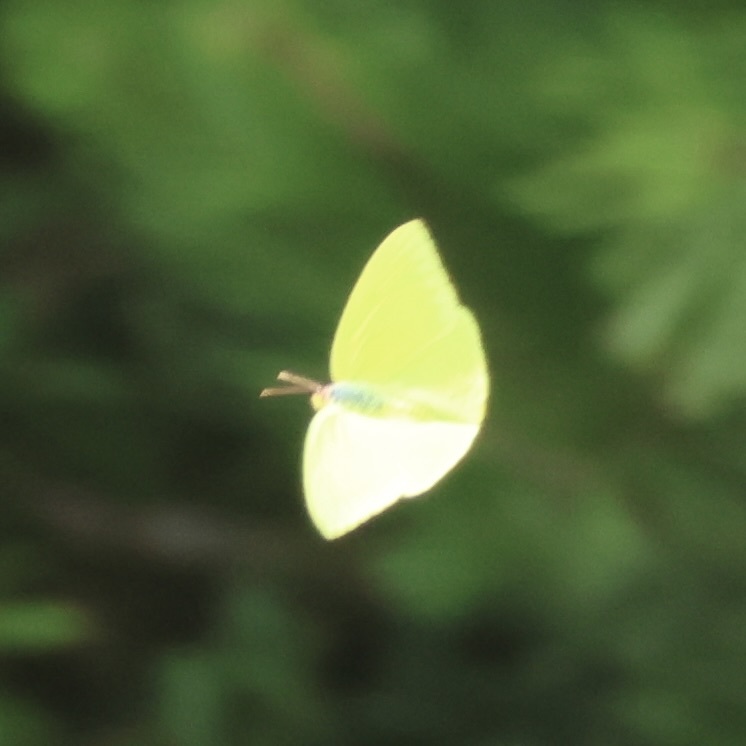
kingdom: Animalia
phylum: Arthropoda
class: Insecta
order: Lepidoptera
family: Pieridae
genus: Phoebis
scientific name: Phoebis sennae
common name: Cloudless sulphur
